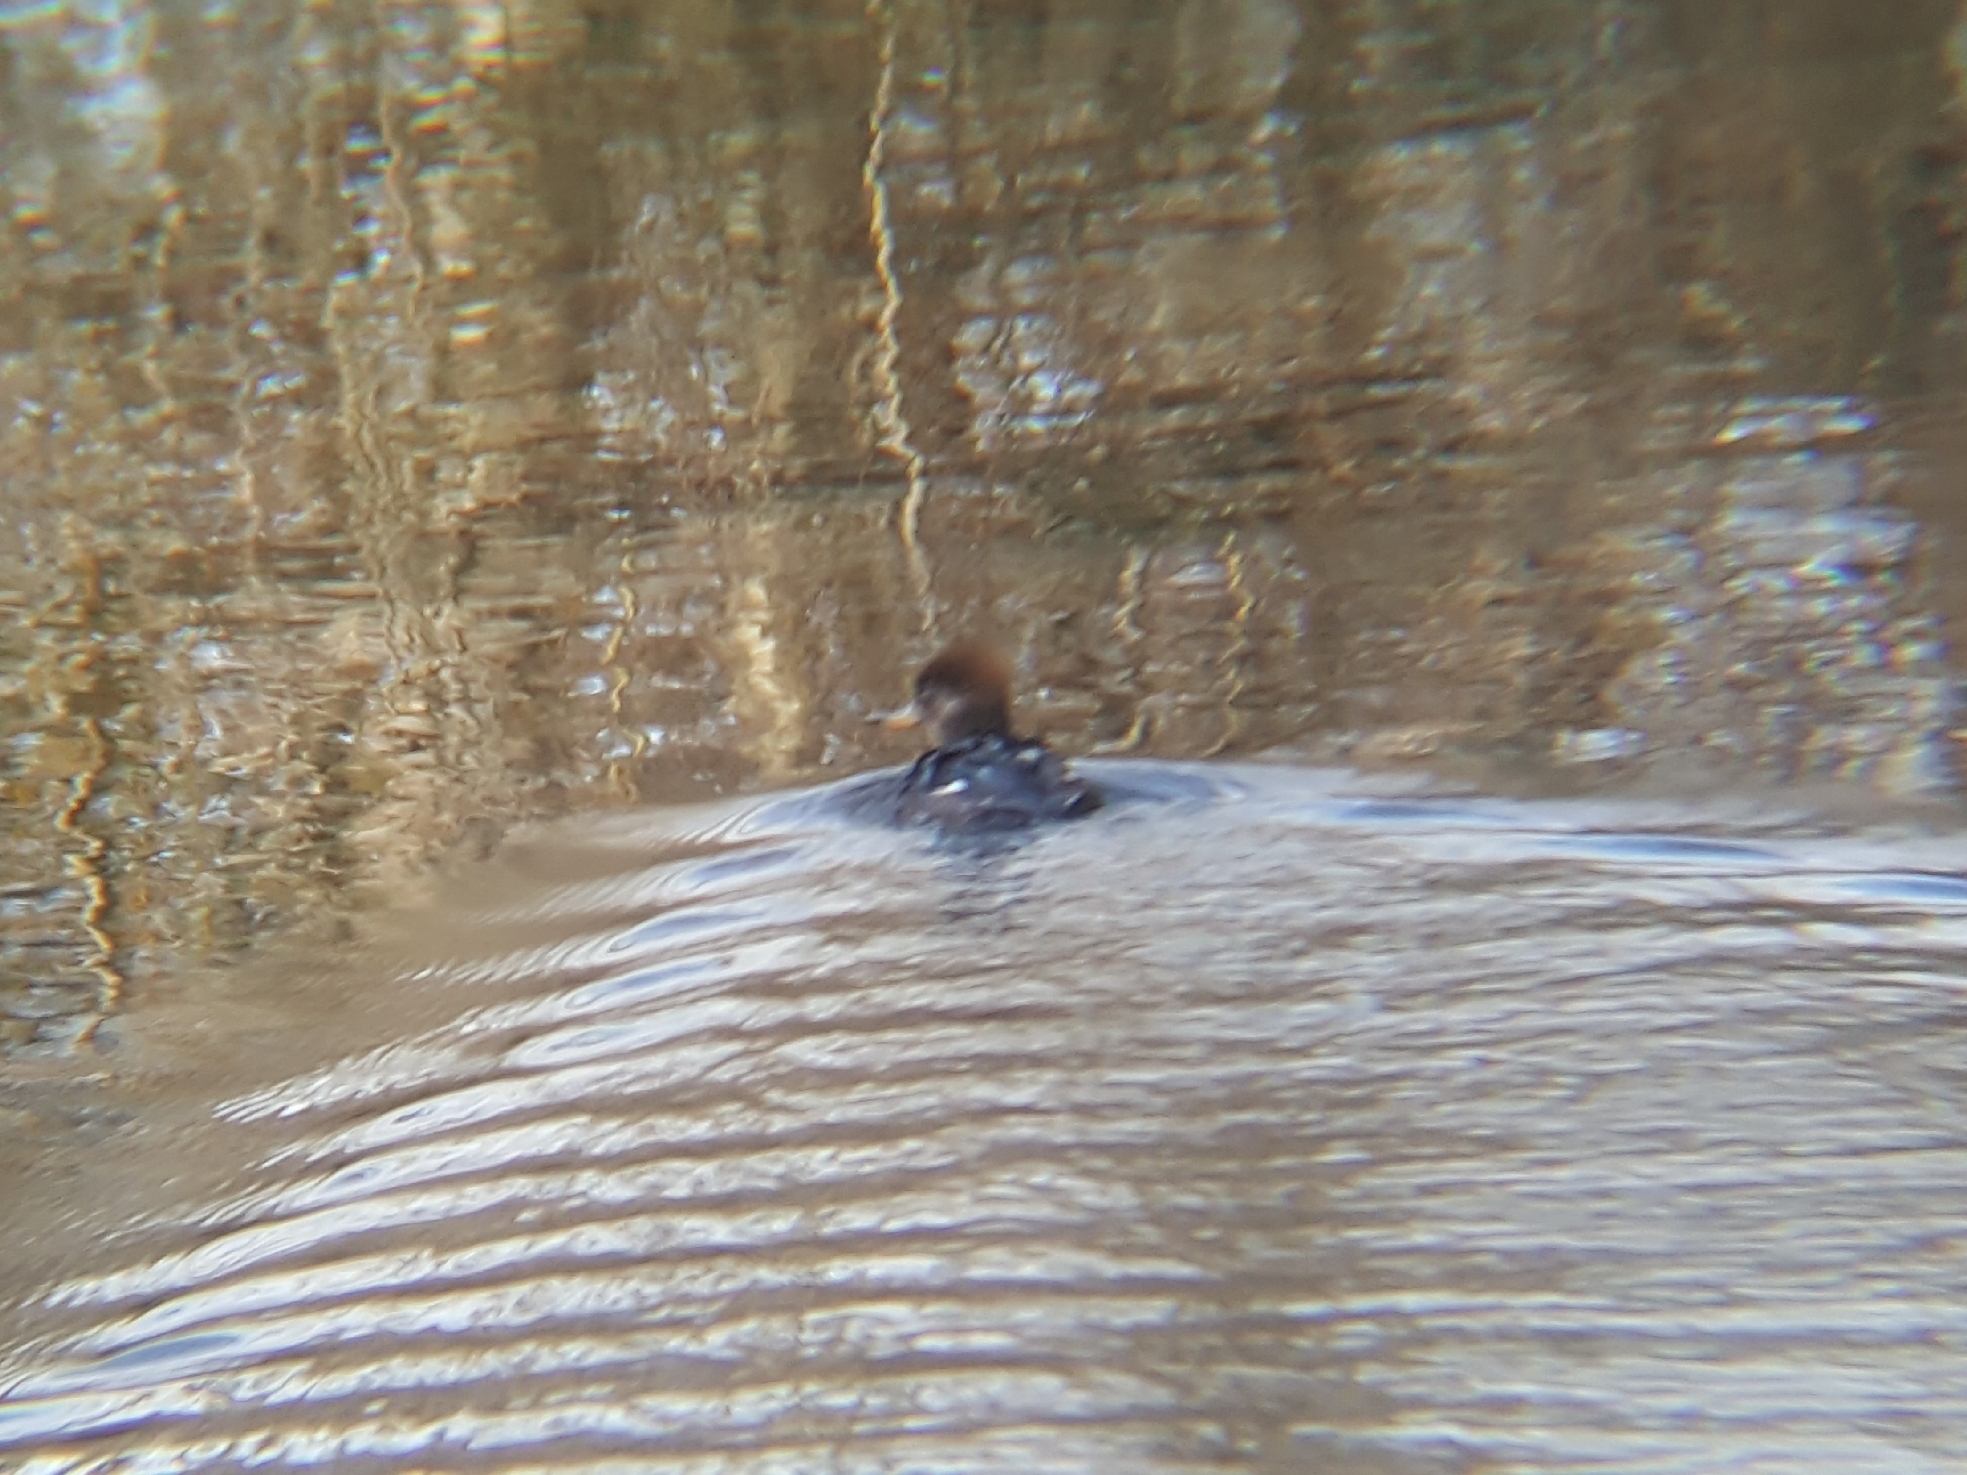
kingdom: Animalia
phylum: Chordata
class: Aves
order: Anseriformes
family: Anatidae
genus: Lophodytes
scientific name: Lophodytes cucullatus
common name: Hooded merganser
